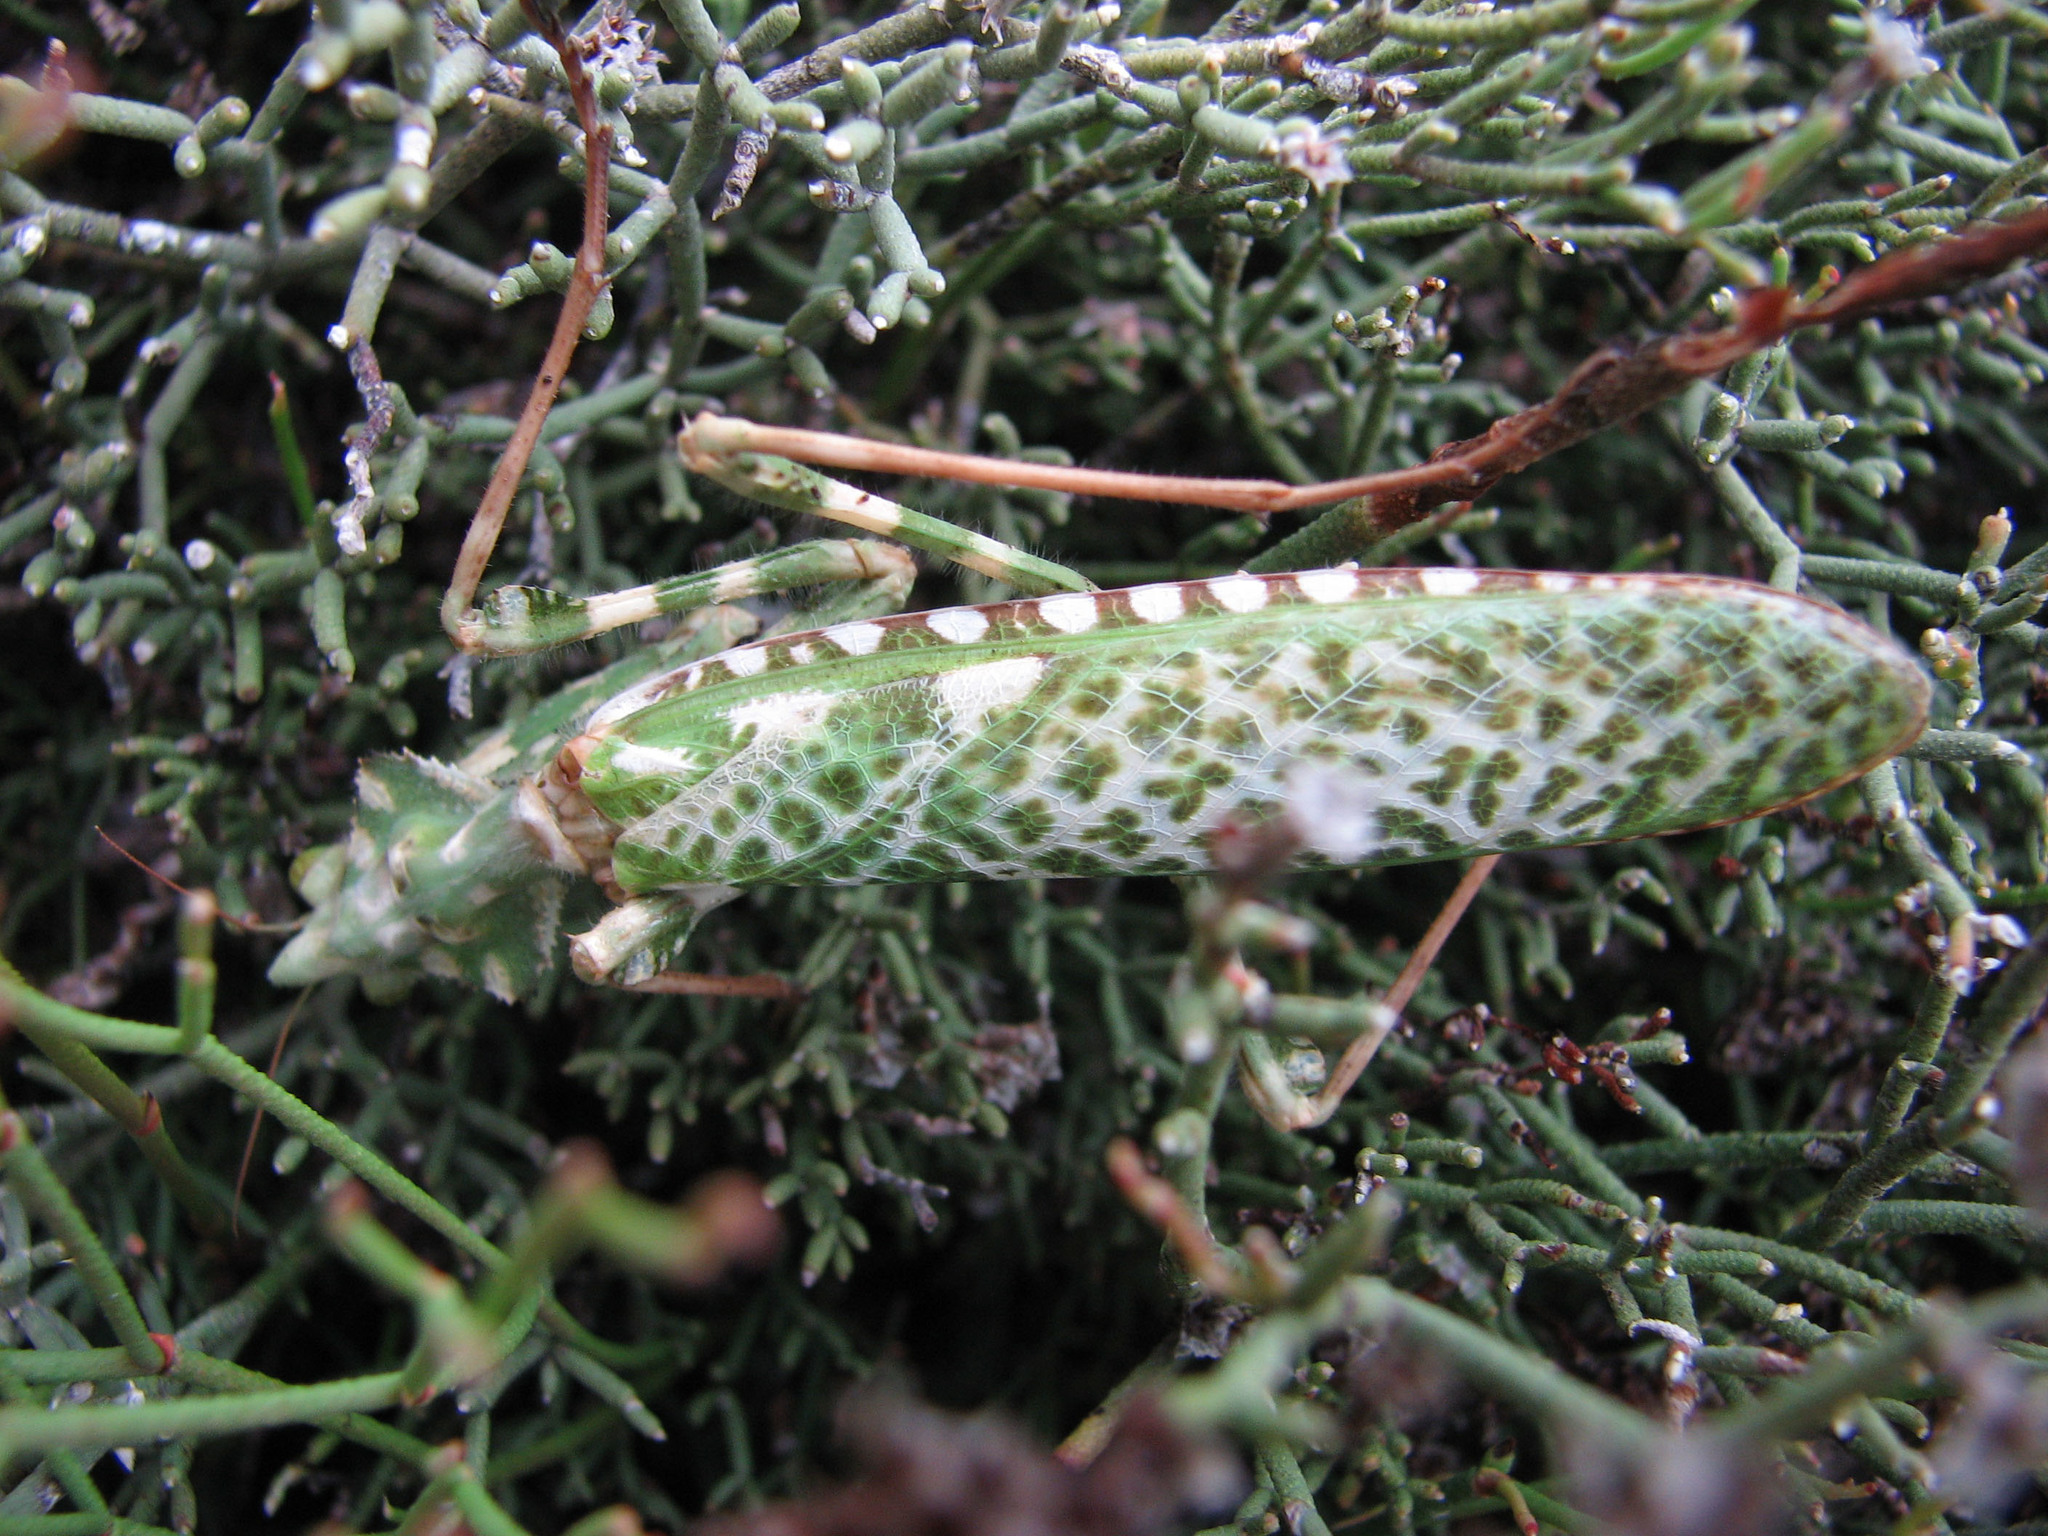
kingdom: Animalia
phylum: Arthropoda
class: Insecta
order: Mantodea
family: Empusidae
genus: Blepharopsis
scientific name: Blepharopsis mendica
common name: Devil's flower mantis
